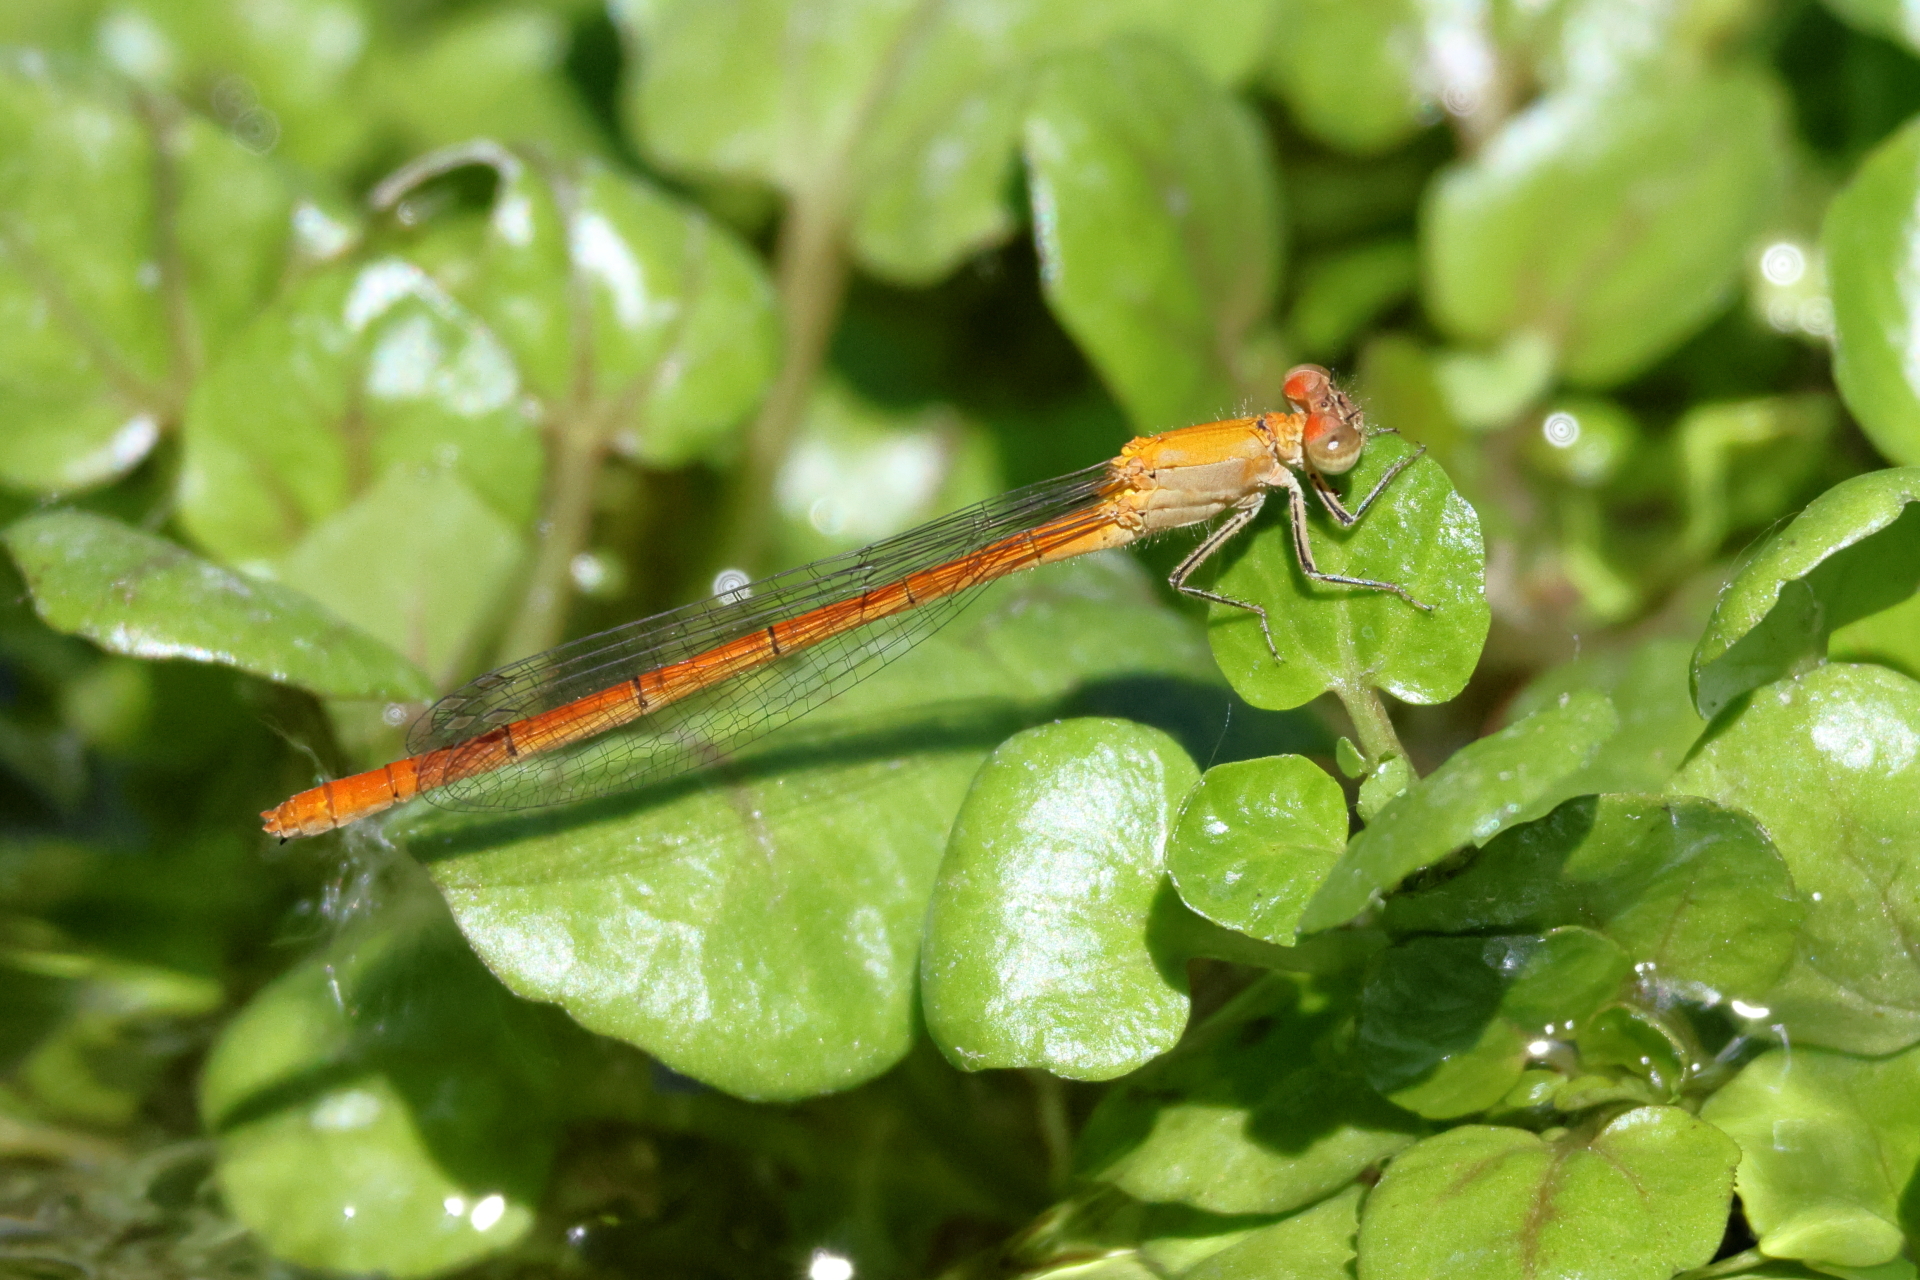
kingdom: Animalia
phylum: Arthropoda
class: Insecta
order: Odonata
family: Coenagrionidae
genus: Hesperagrion
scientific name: Hesperagrion heterodoxum
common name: Painted damsel
